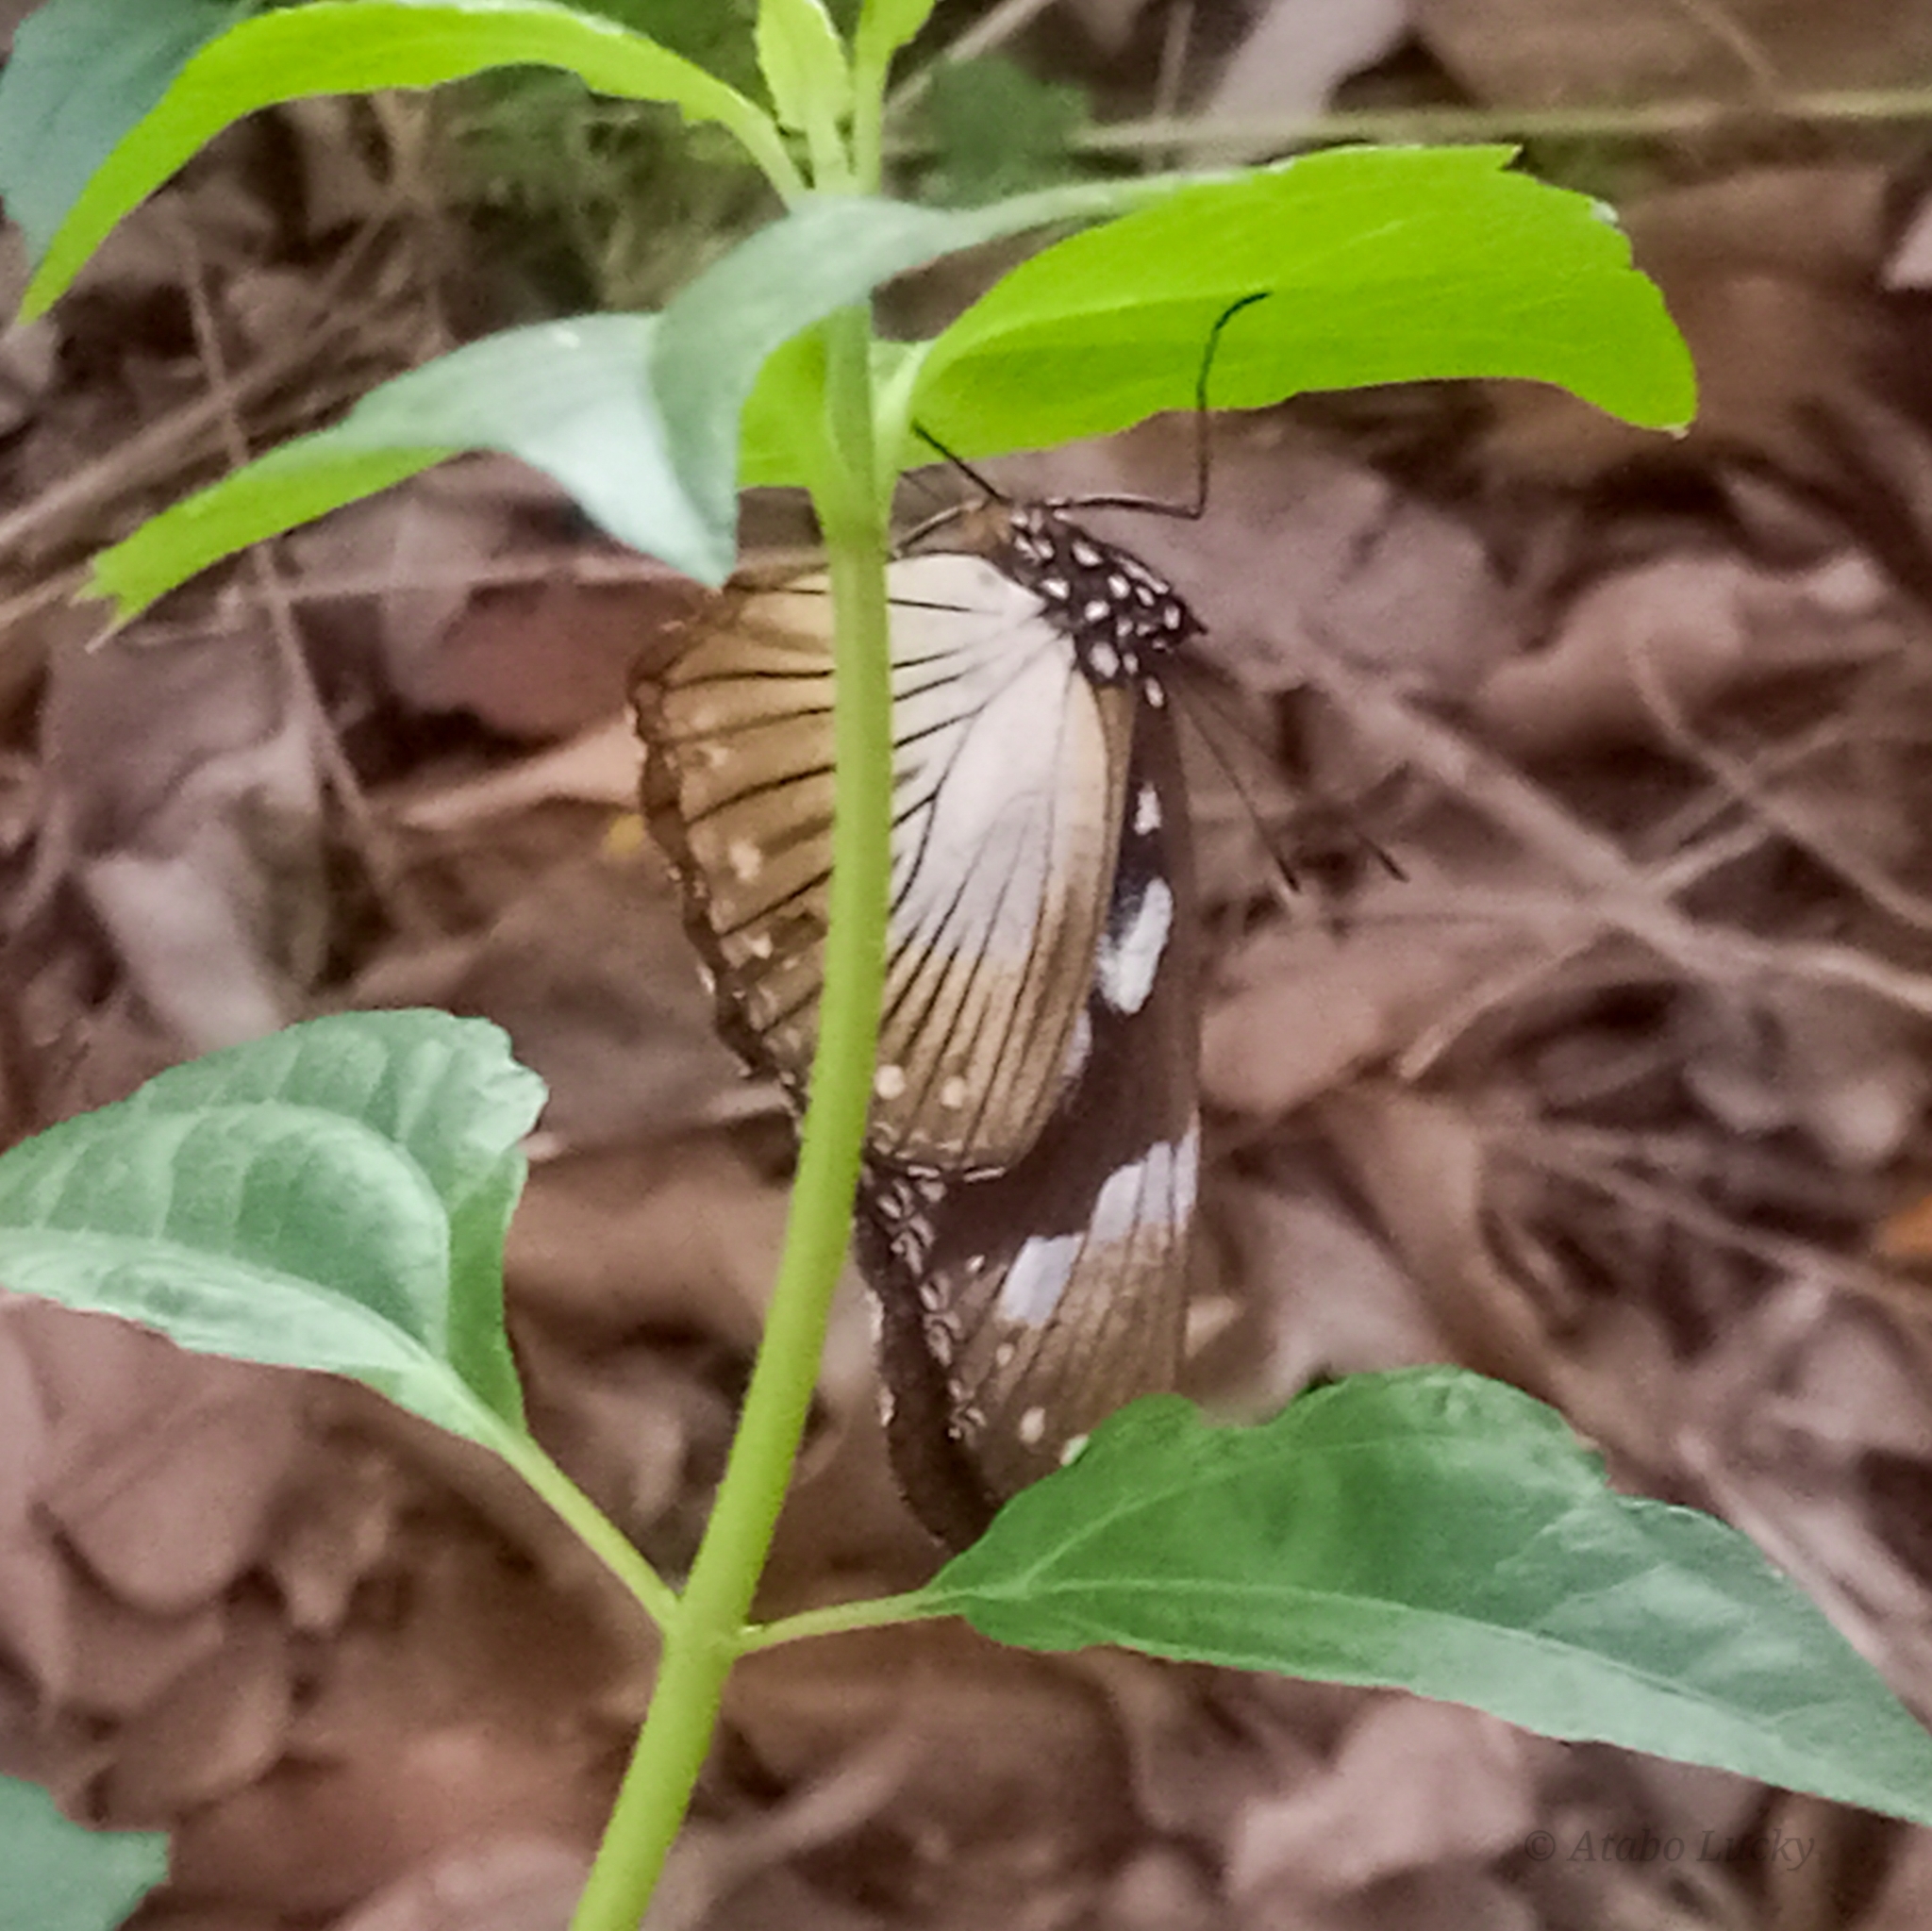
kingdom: Animalia
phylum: Arthropoda
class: Insecta
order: Lepidoptera
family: Nymphalidae
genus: Hypolimnas
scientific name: Hypolimnas dubius
